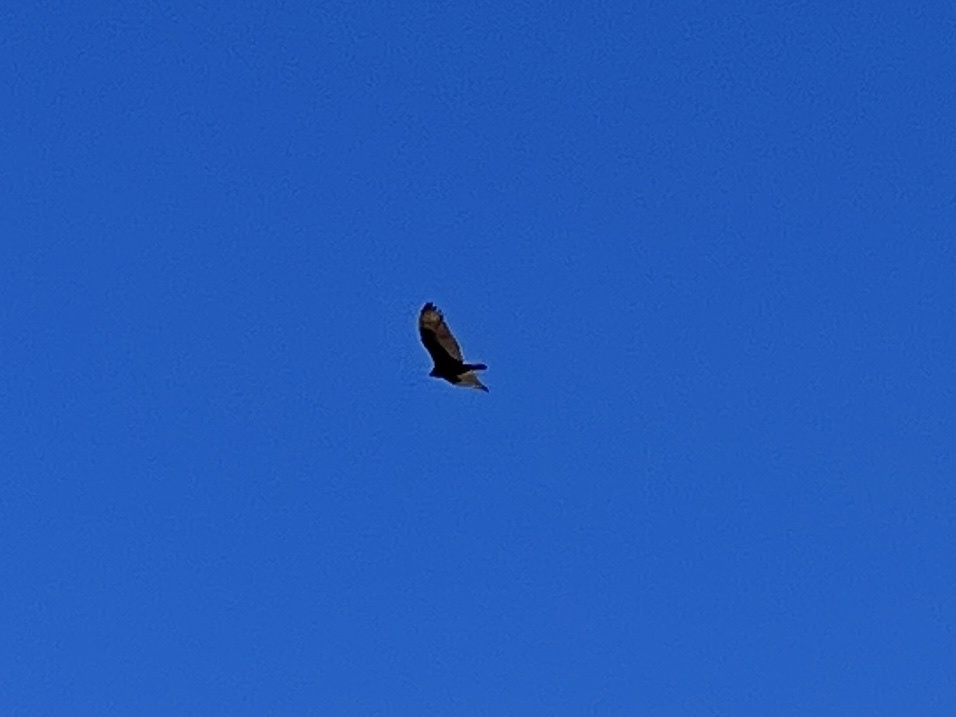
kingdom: Animalia
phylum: Chordata
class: Aves
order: Accipitriformes
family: Cathartidae
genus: Cathartes
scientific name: Cathartes aura
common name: Turkey vulture
